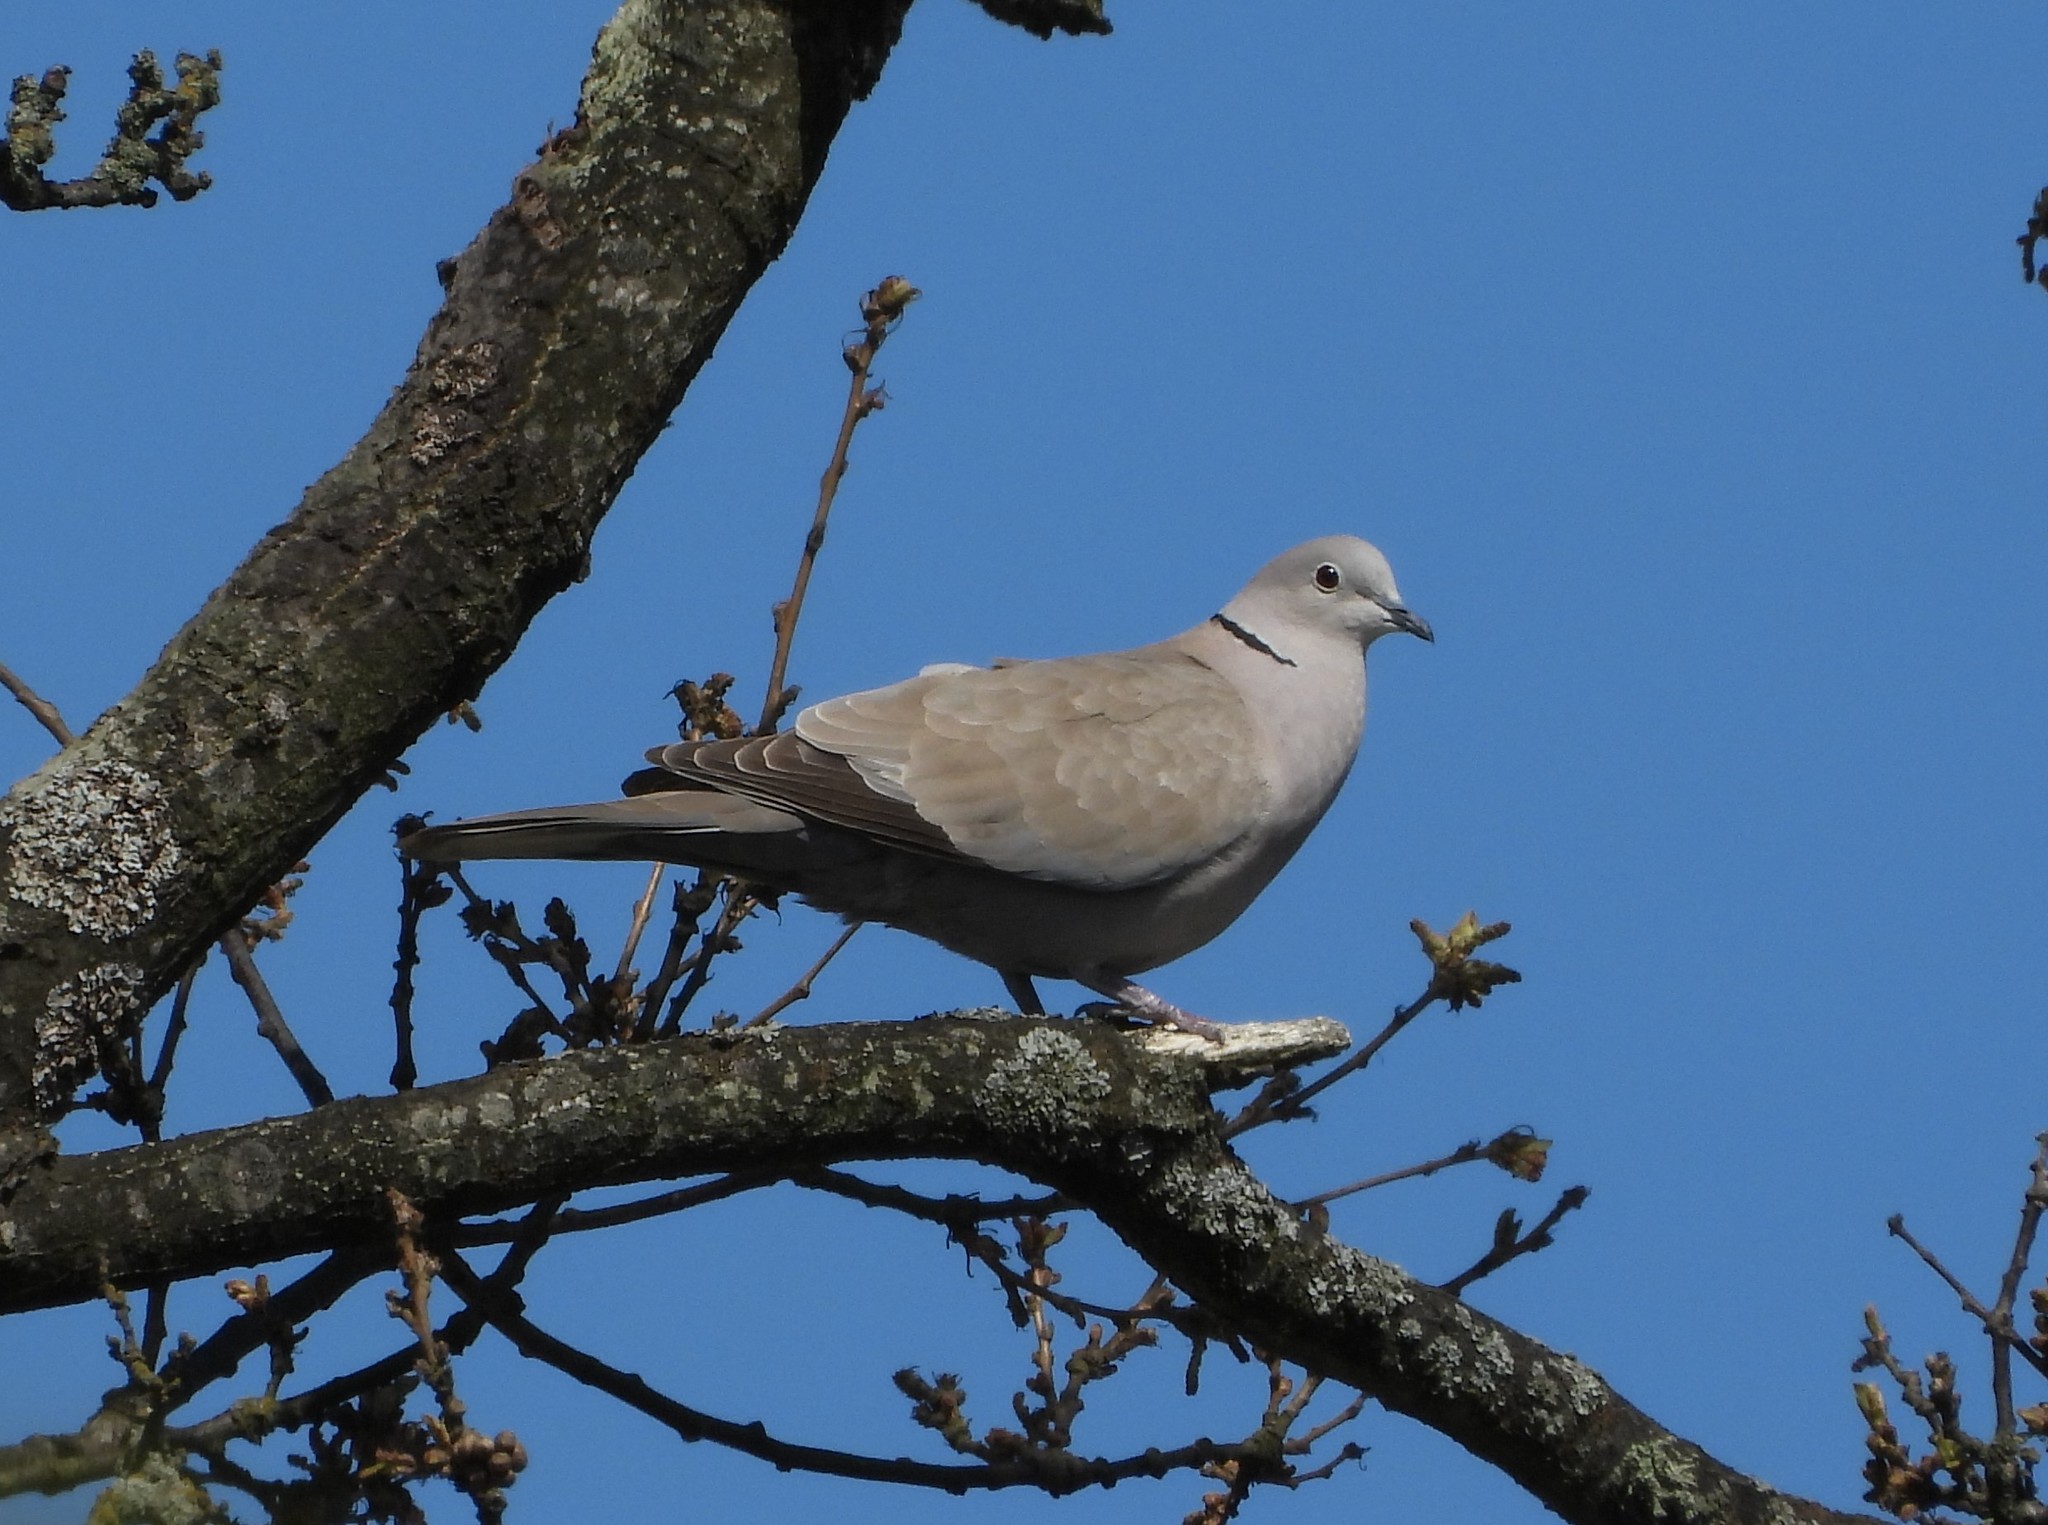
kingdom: Animalia
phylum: Chordata
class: Aves
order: Columbiformes
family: Columbidae
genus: Streptopelia
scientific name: Streptopelia decaocto
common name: Eurasian collared dove
